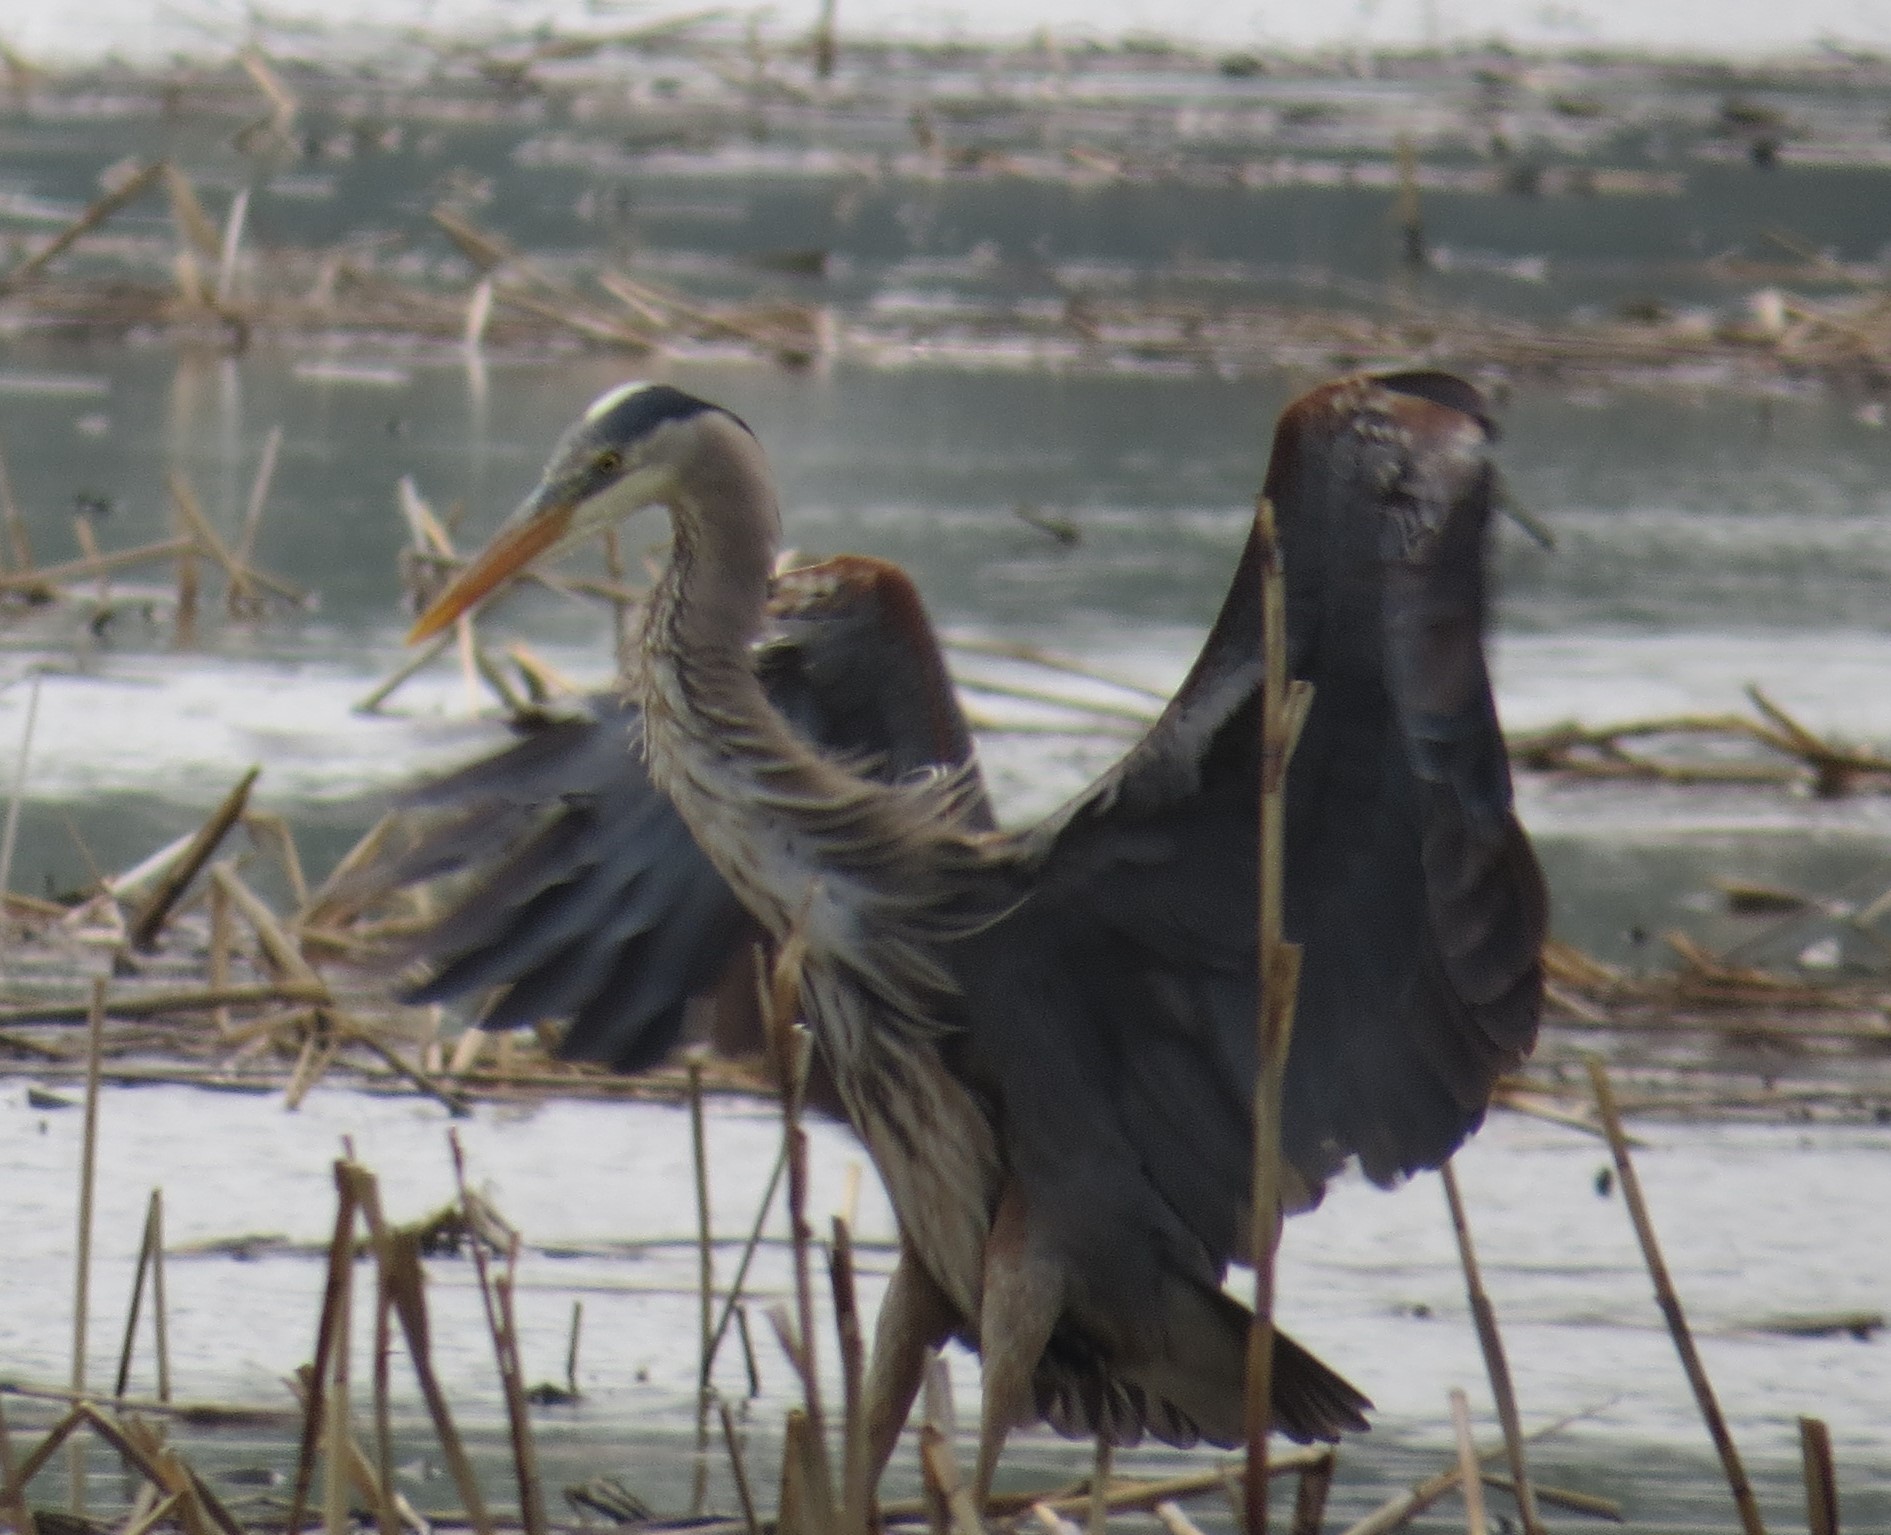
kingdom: Animalia
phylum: Chordata
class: Aves
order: Pelecaniformes
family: Ardeidae
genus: Ardea
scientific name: Ardea herodias
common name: Great blue heron
